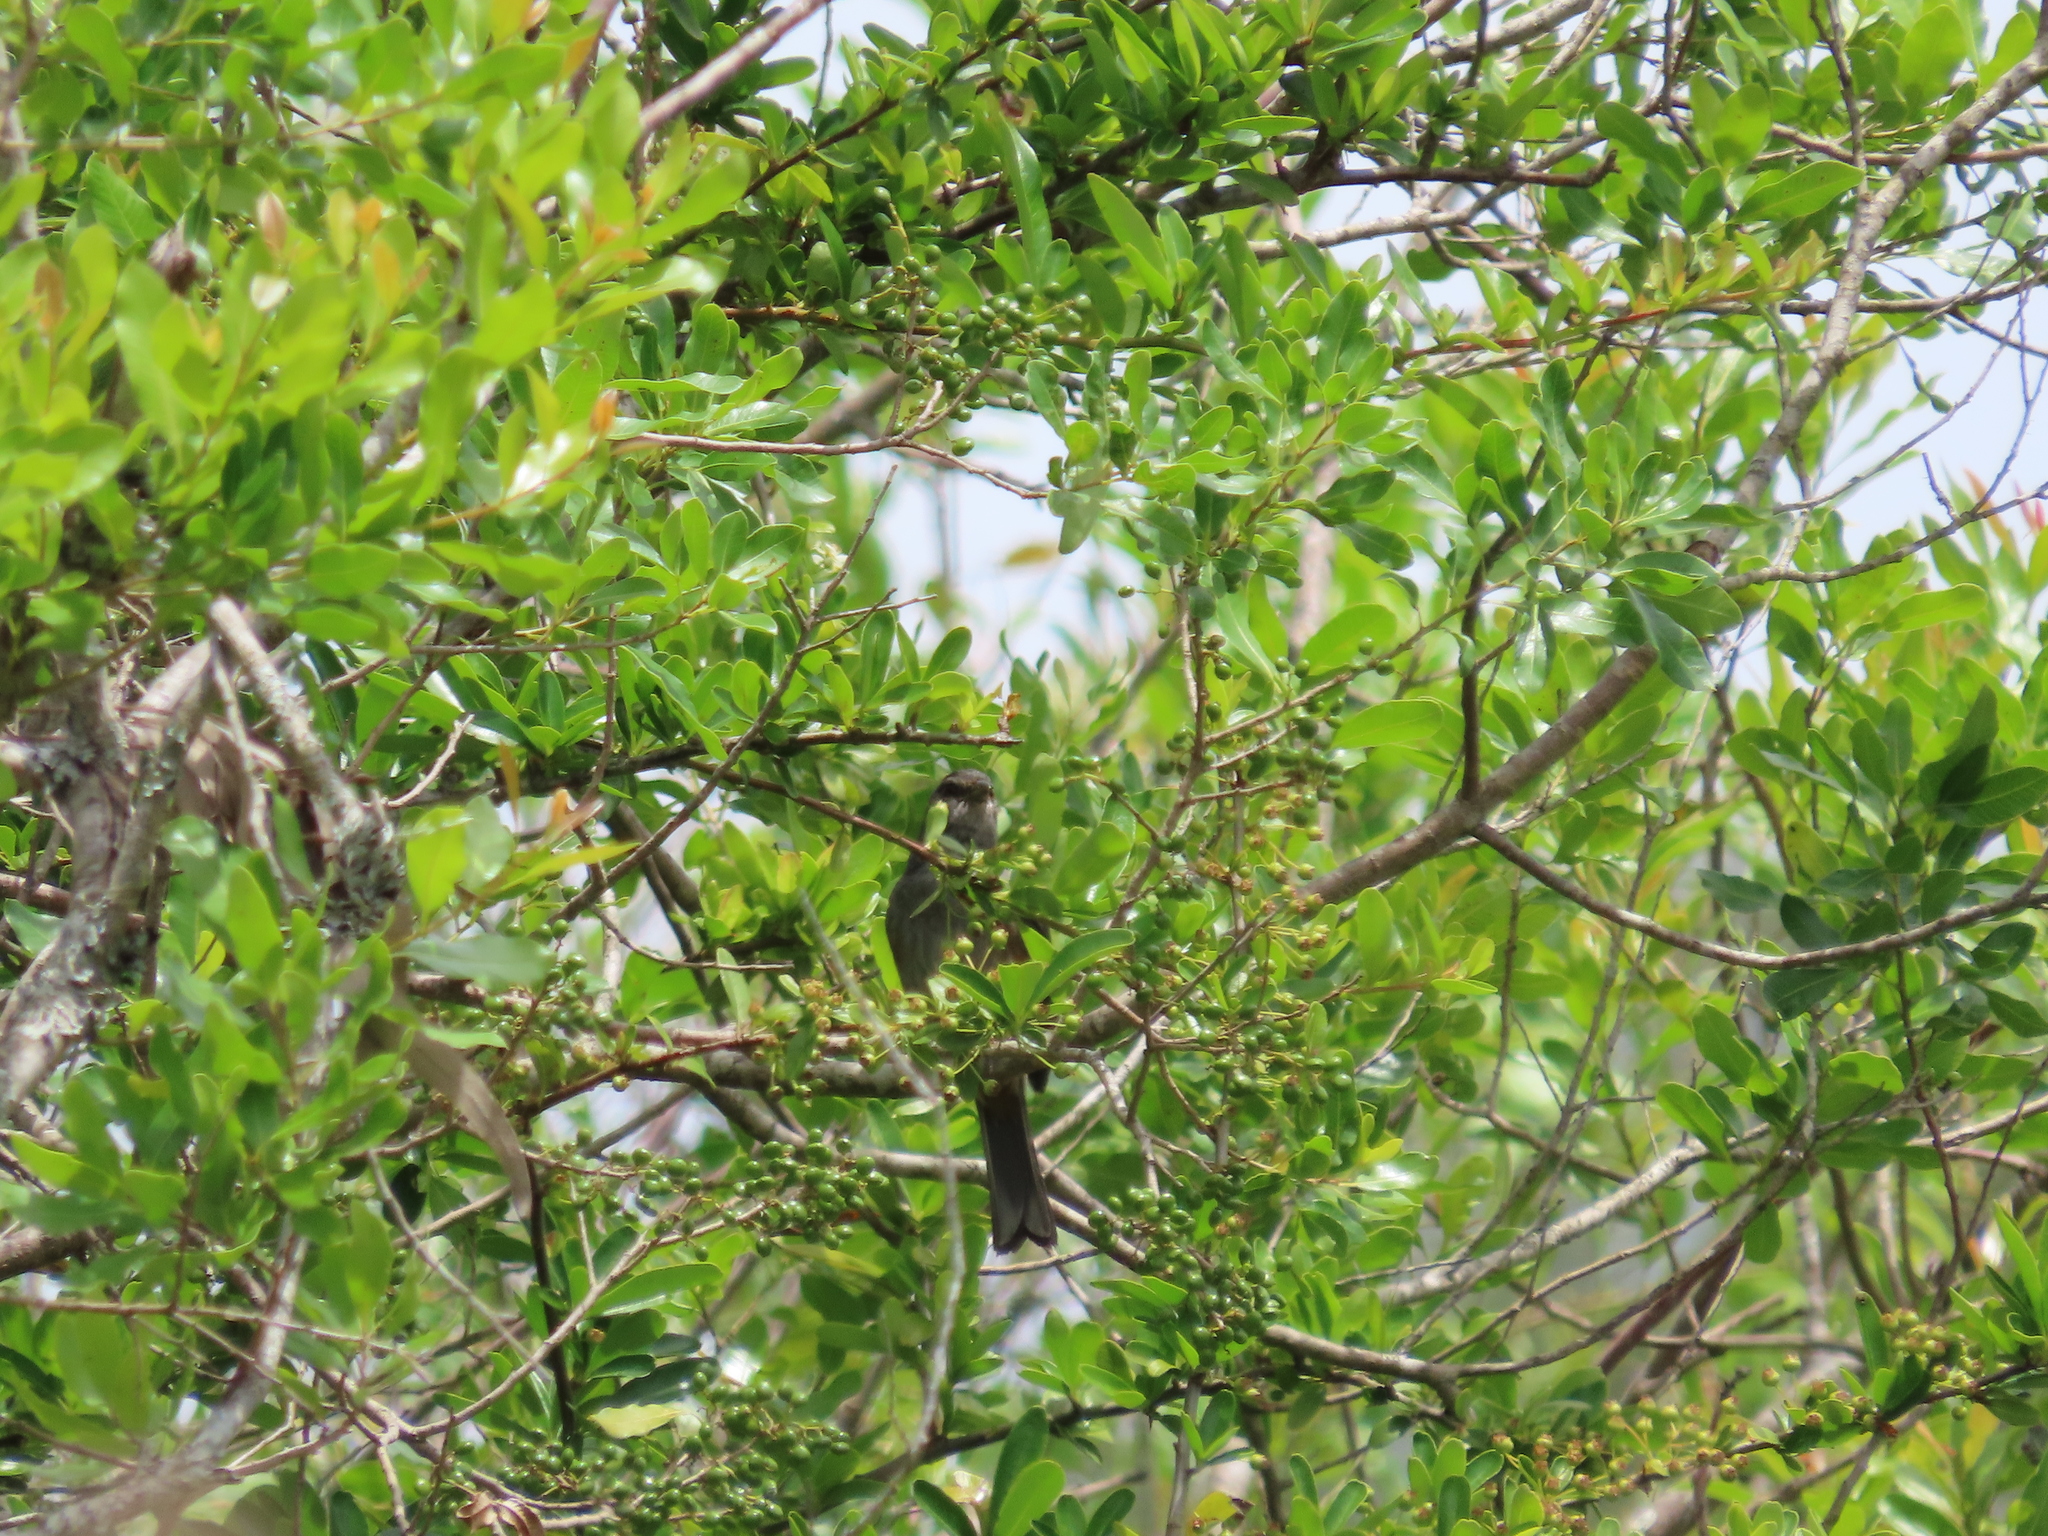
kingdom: Animalia
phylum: Chordata
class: Aves
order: Passeriformes
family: Thraupidae
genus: Microspingus
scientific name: Microspingus cabanisi
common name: Gray-throated warbling-finch
